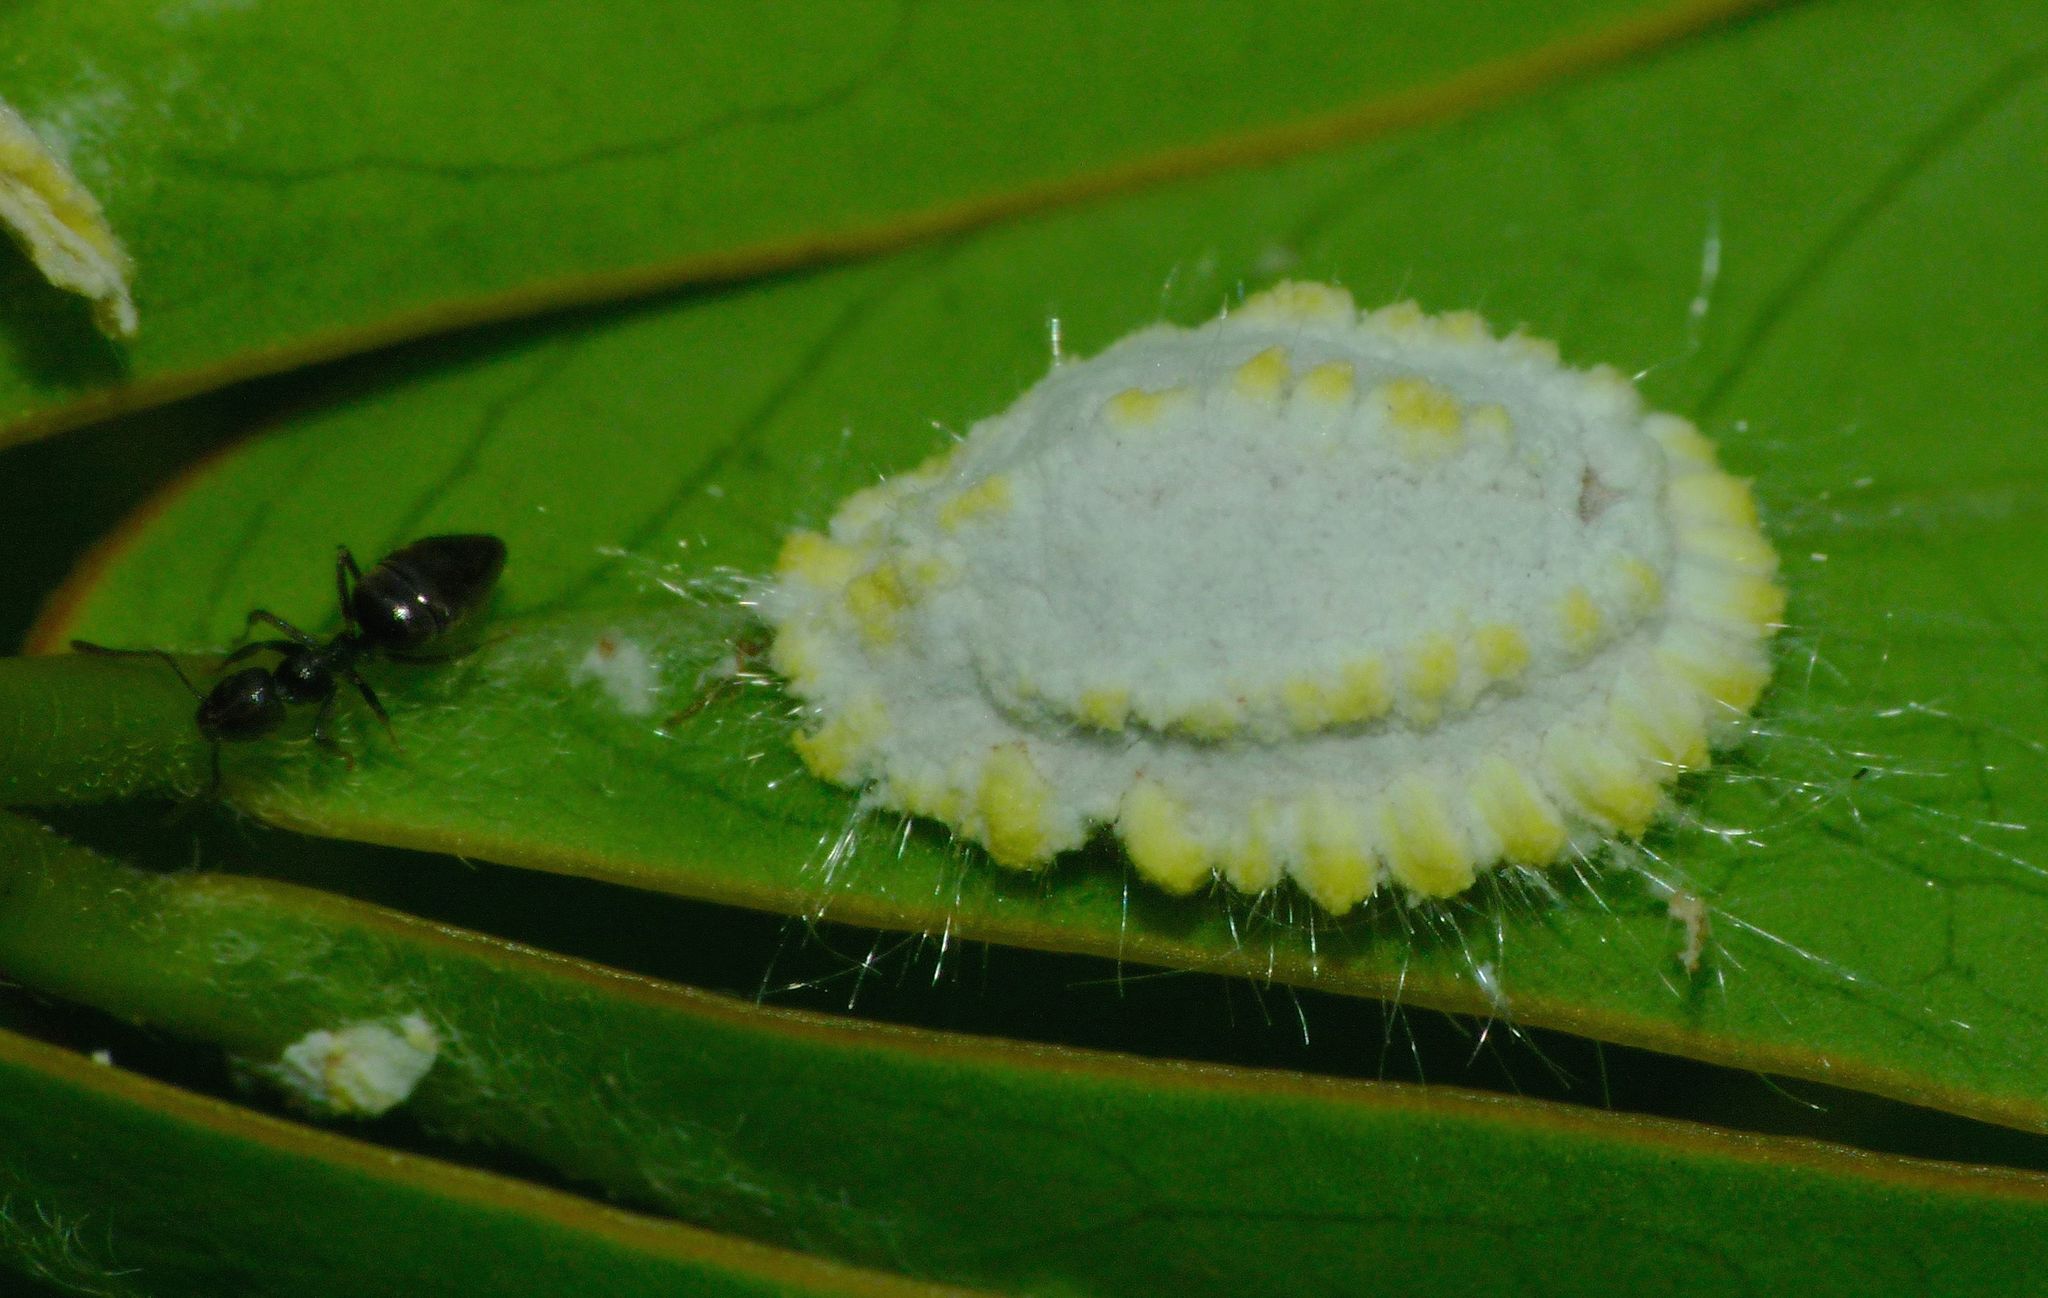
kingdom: Animalia
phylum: Arthropoda
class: Insecta
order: Hemiptera
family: Margarodidae
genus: Icerya
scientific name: Icerya seychellarum
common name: Iceplant scale
